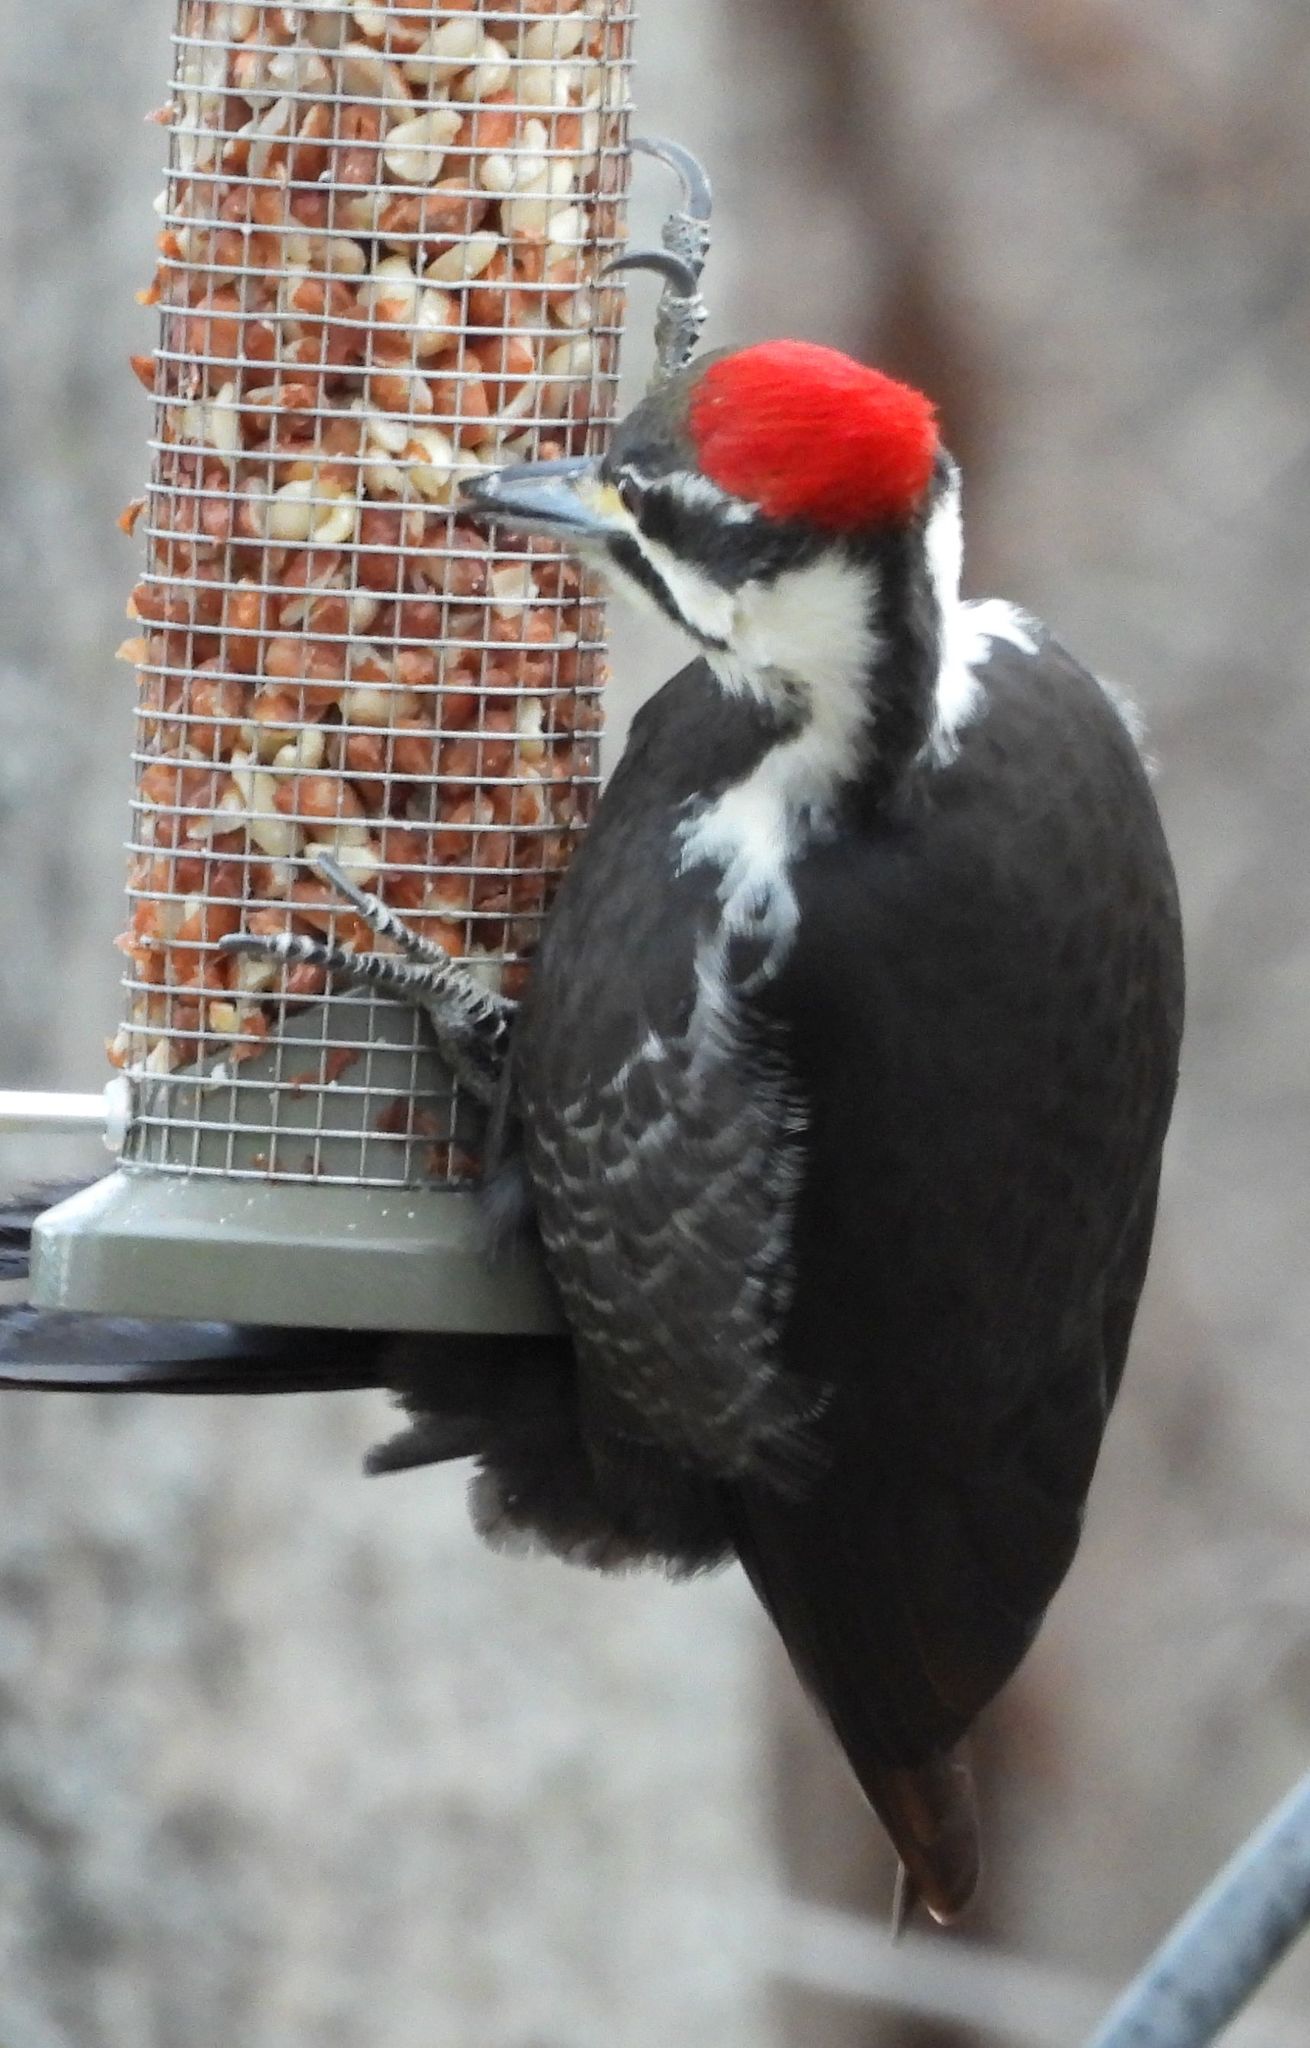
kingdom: Animalia
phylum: Chordata
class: Aves
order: Piciformes
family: Picidae
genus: Dryocopus
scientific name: Dryocopus pileatus
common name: Pileated woodpecker
